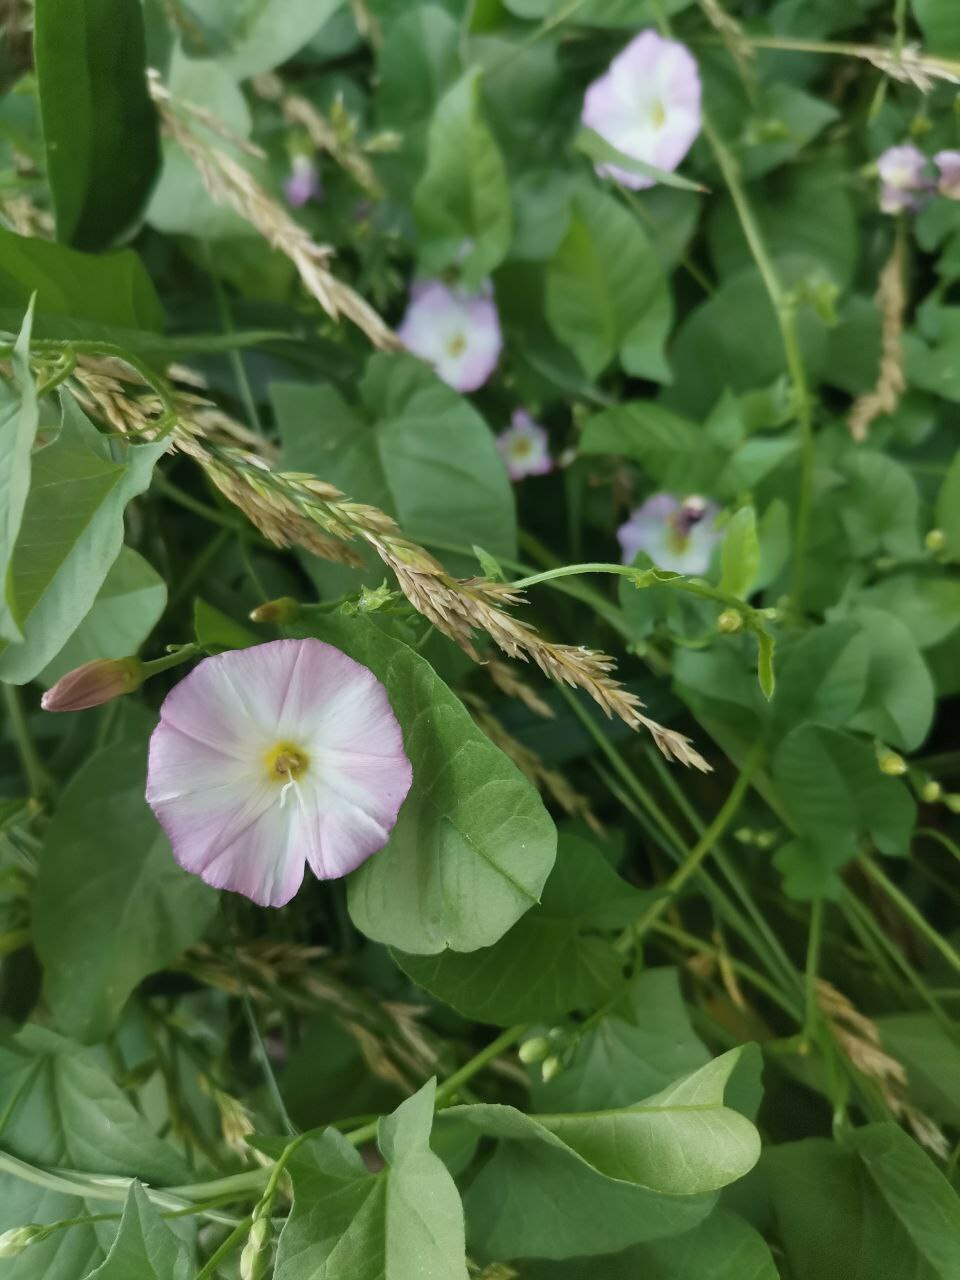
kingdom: Plantae
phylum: Tracheophyta
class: Magnoliopsida
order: Solanales
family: Convolvulaceae
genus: Convolvulus
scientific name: Convolvulus arvensis
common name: Field bindweed
